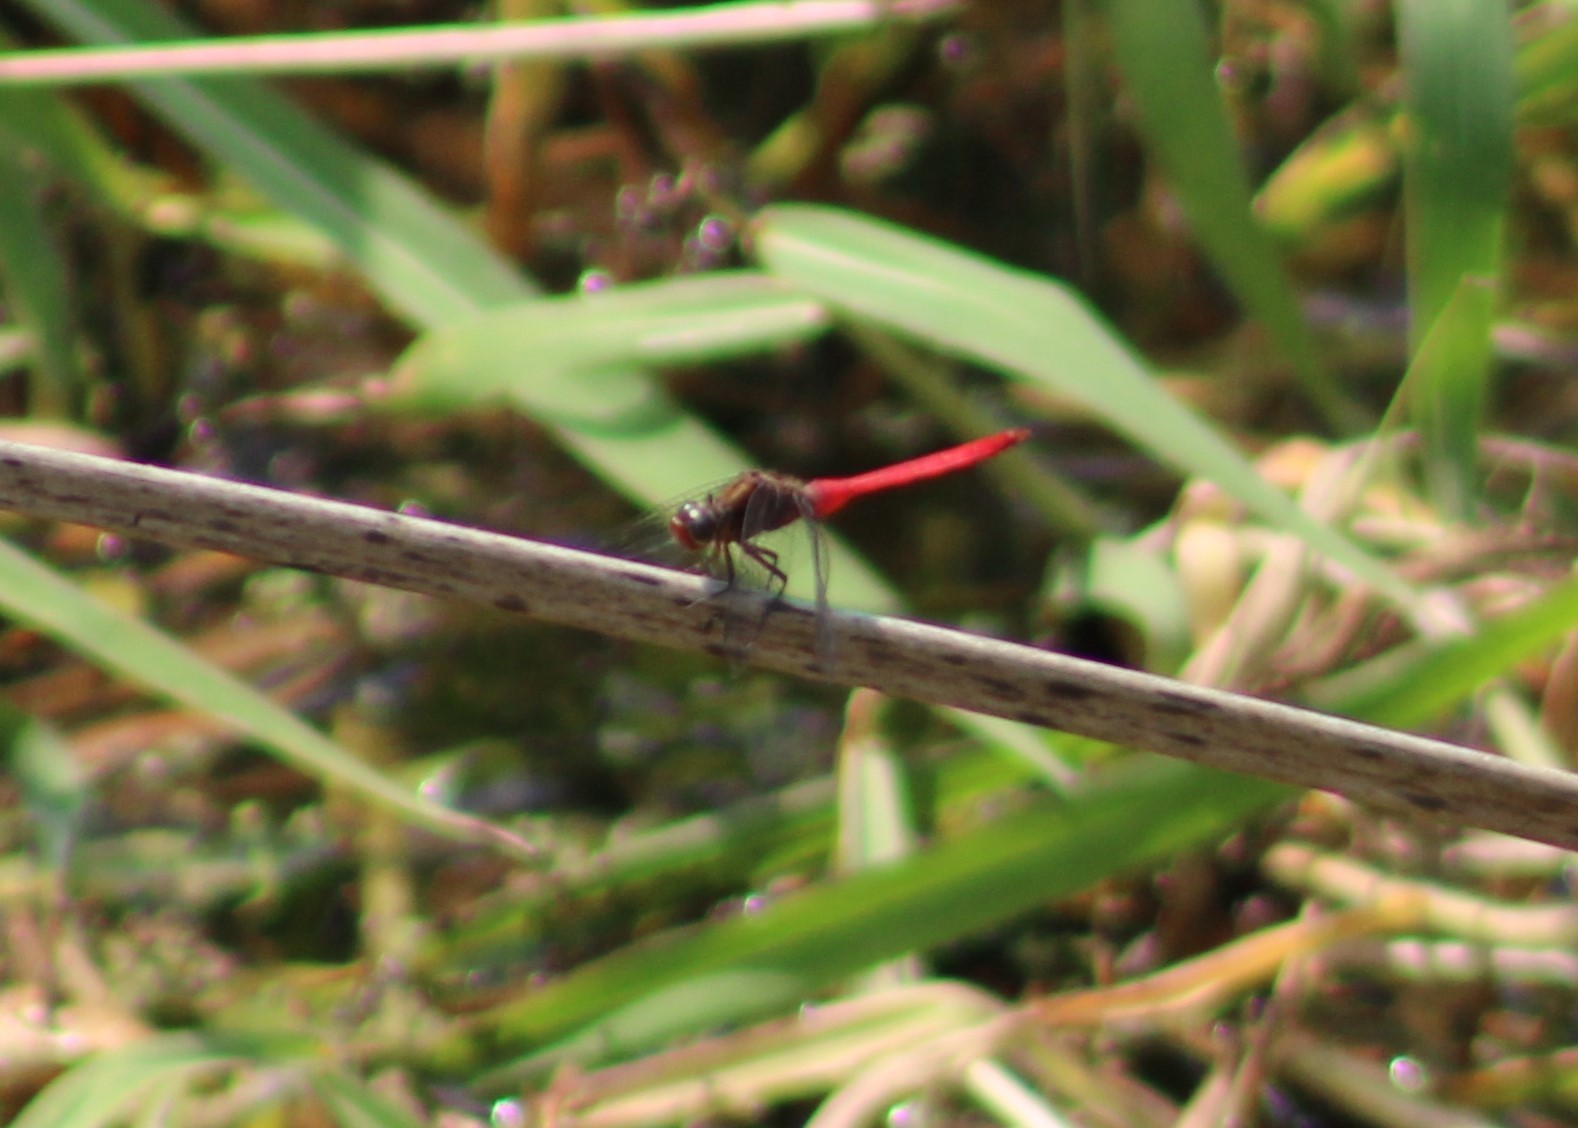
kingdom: Animalia
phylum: Arthropoda
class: Insecta
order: Odonata
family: Libellulidae
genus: Orthetrum
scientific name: Orthetrum villosovittatum
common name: Firery skimmer
